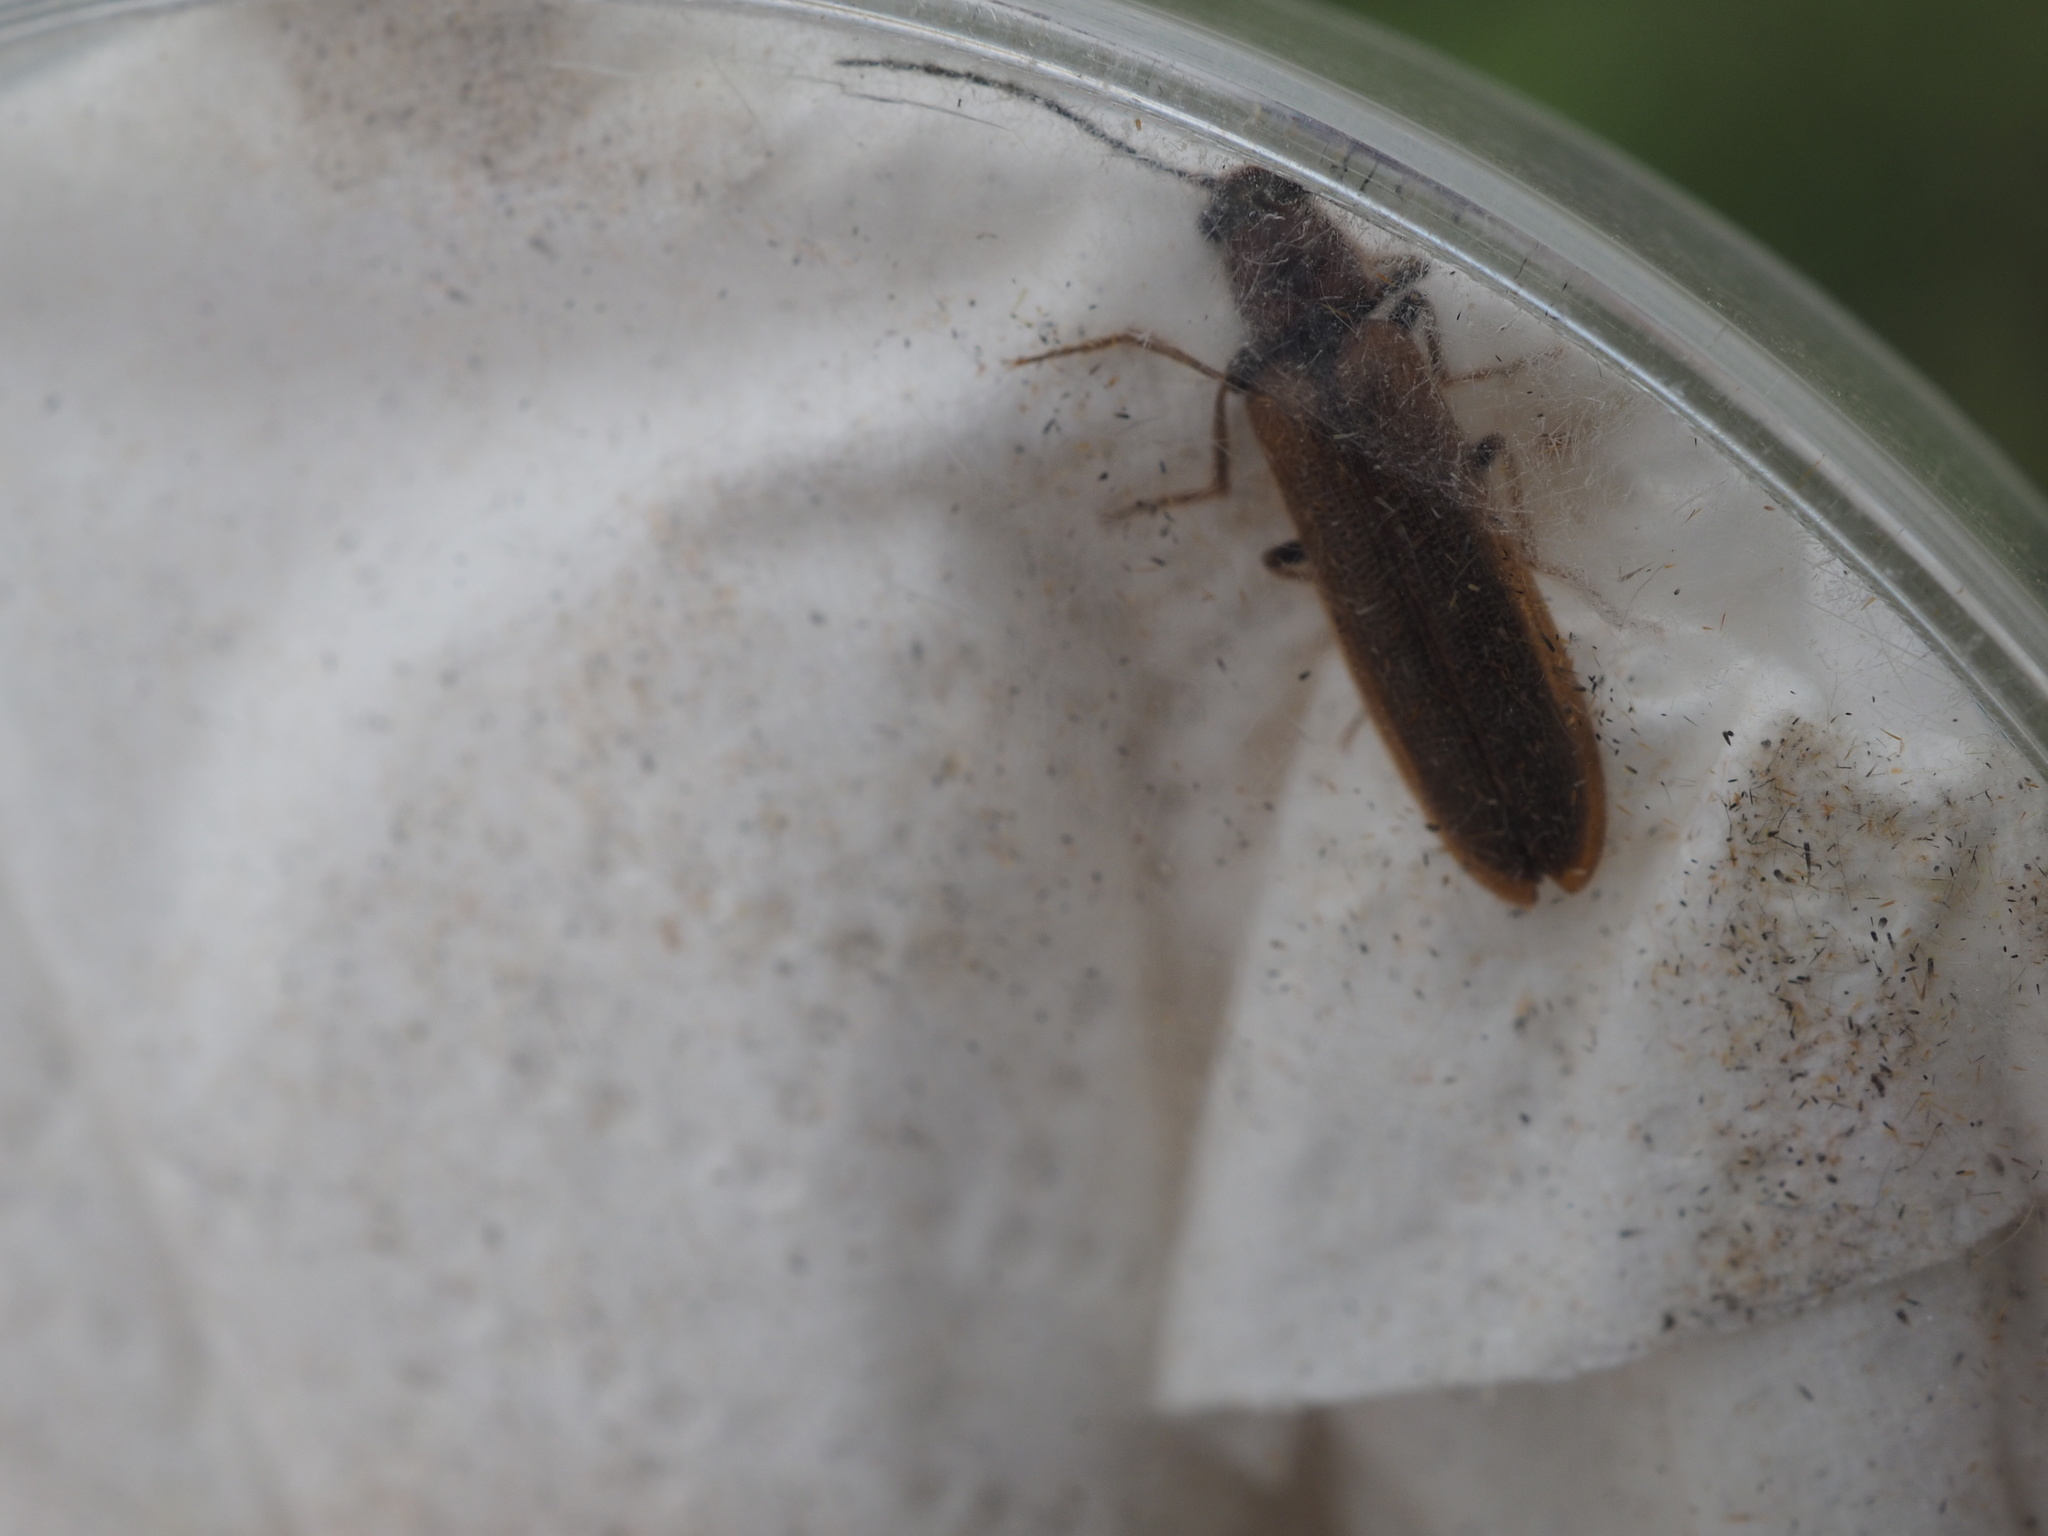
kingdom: Animalia
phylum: Arthropoda
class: Insecta
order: Coleoptera
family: Elateridae
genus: Denticollis
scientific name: Denticollis linearis
